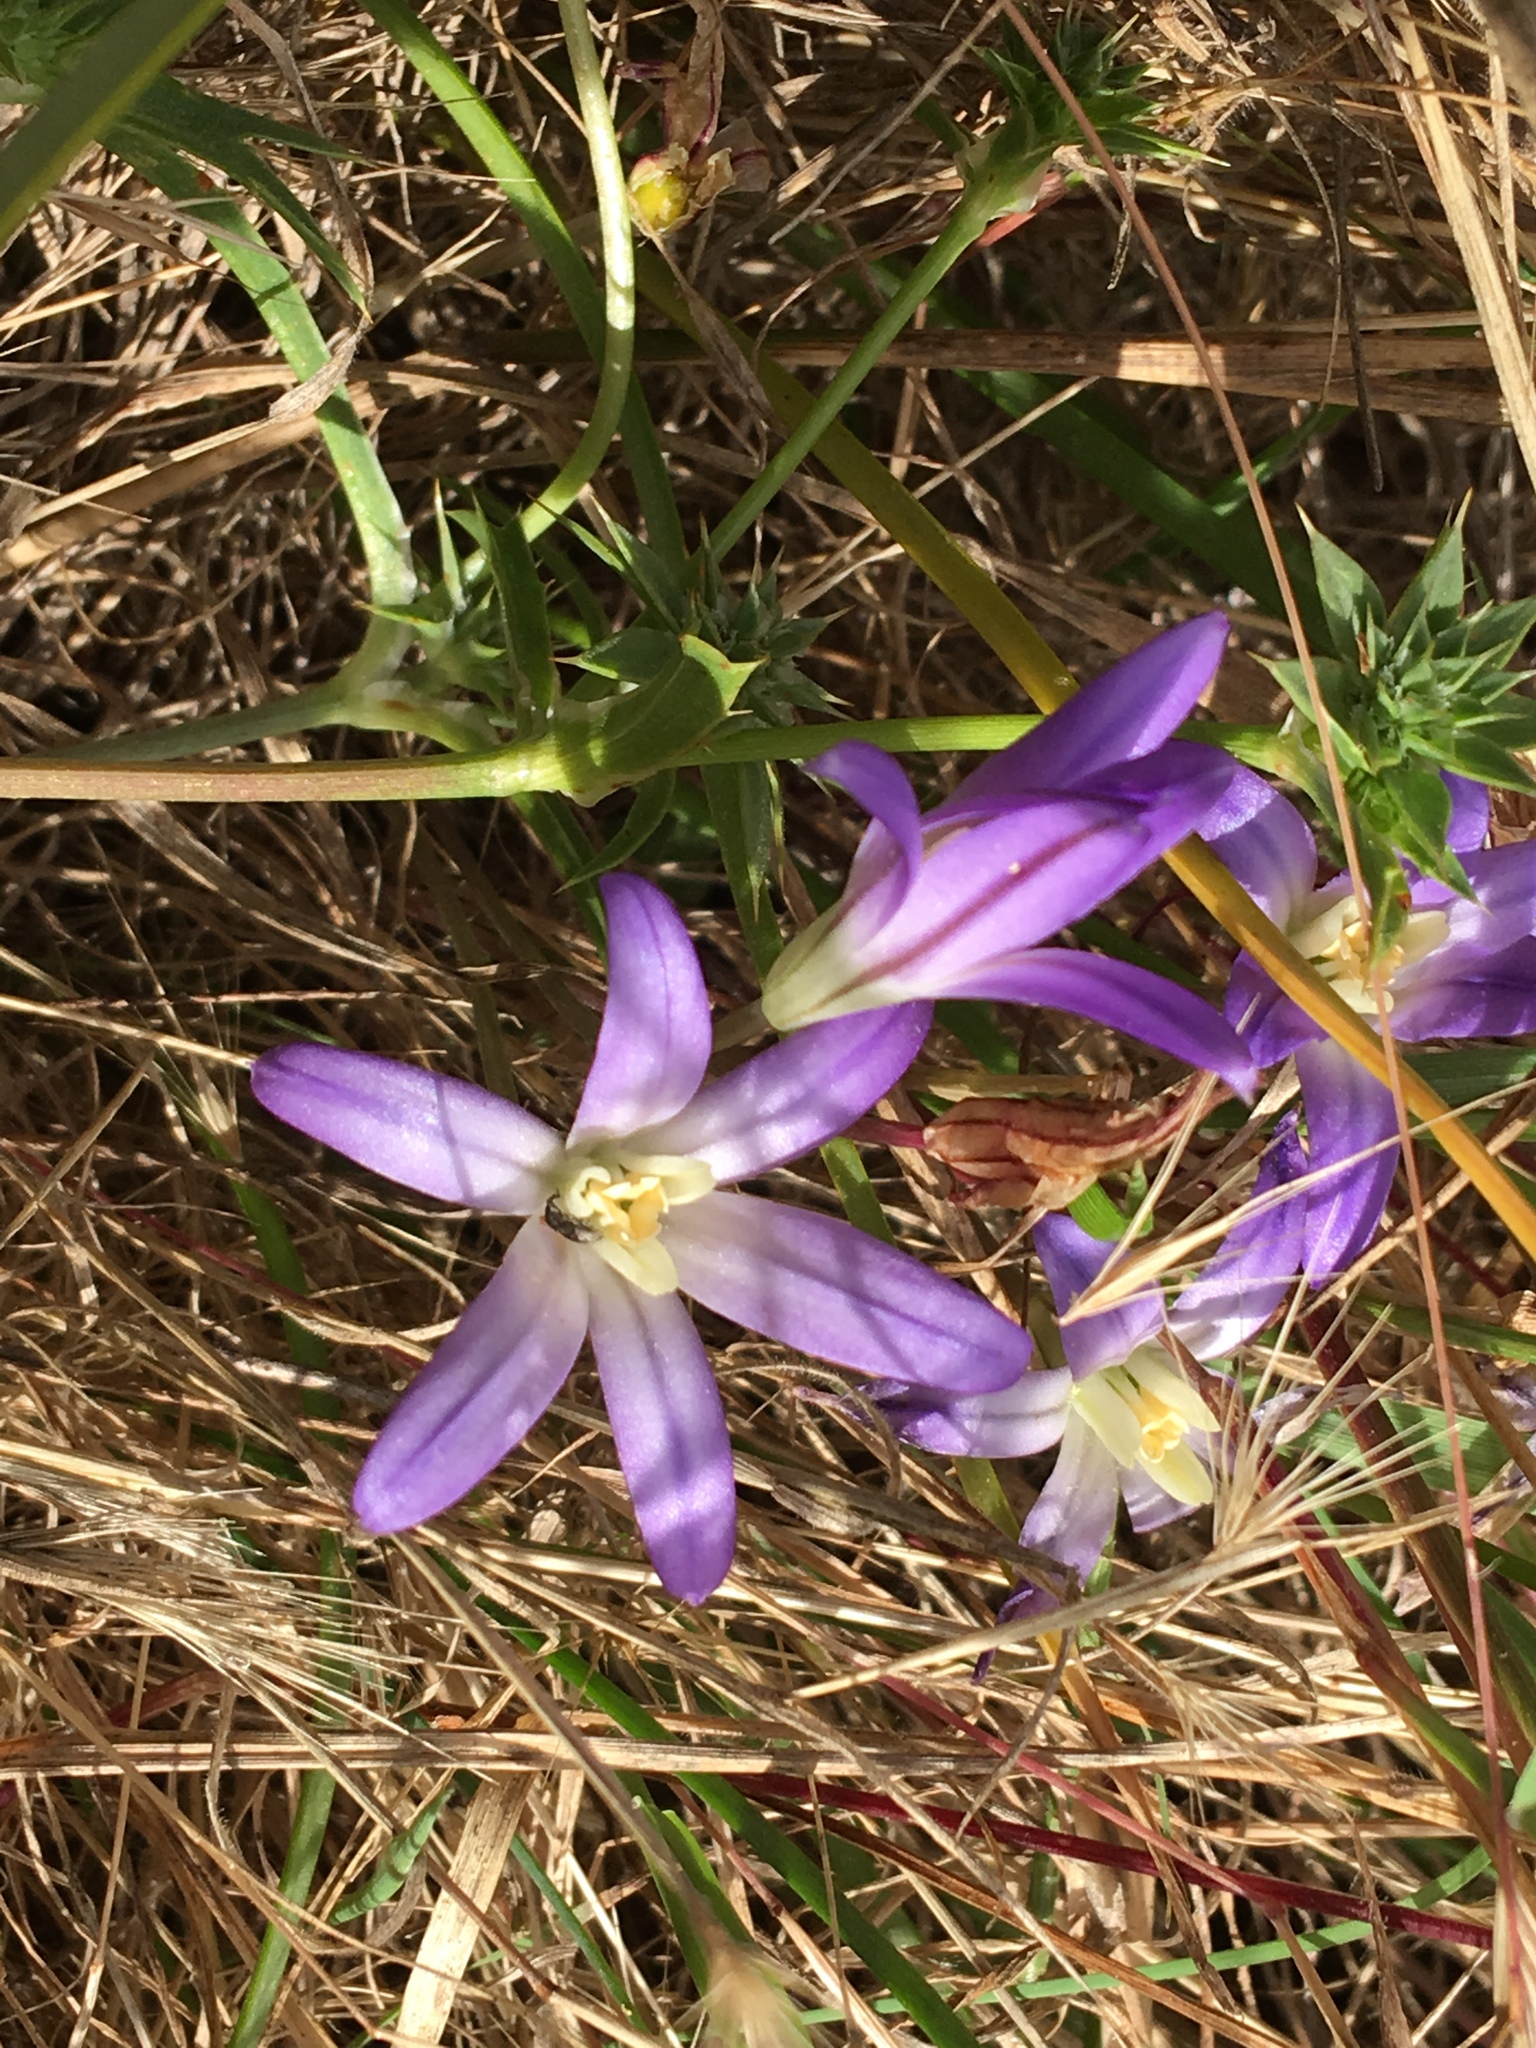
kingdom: Plantae
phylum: Tracheophyta
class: Liliopsida
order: Asparagales
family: Asparagaceae
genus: Brodiaea
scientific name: Brodiaea terrestris
